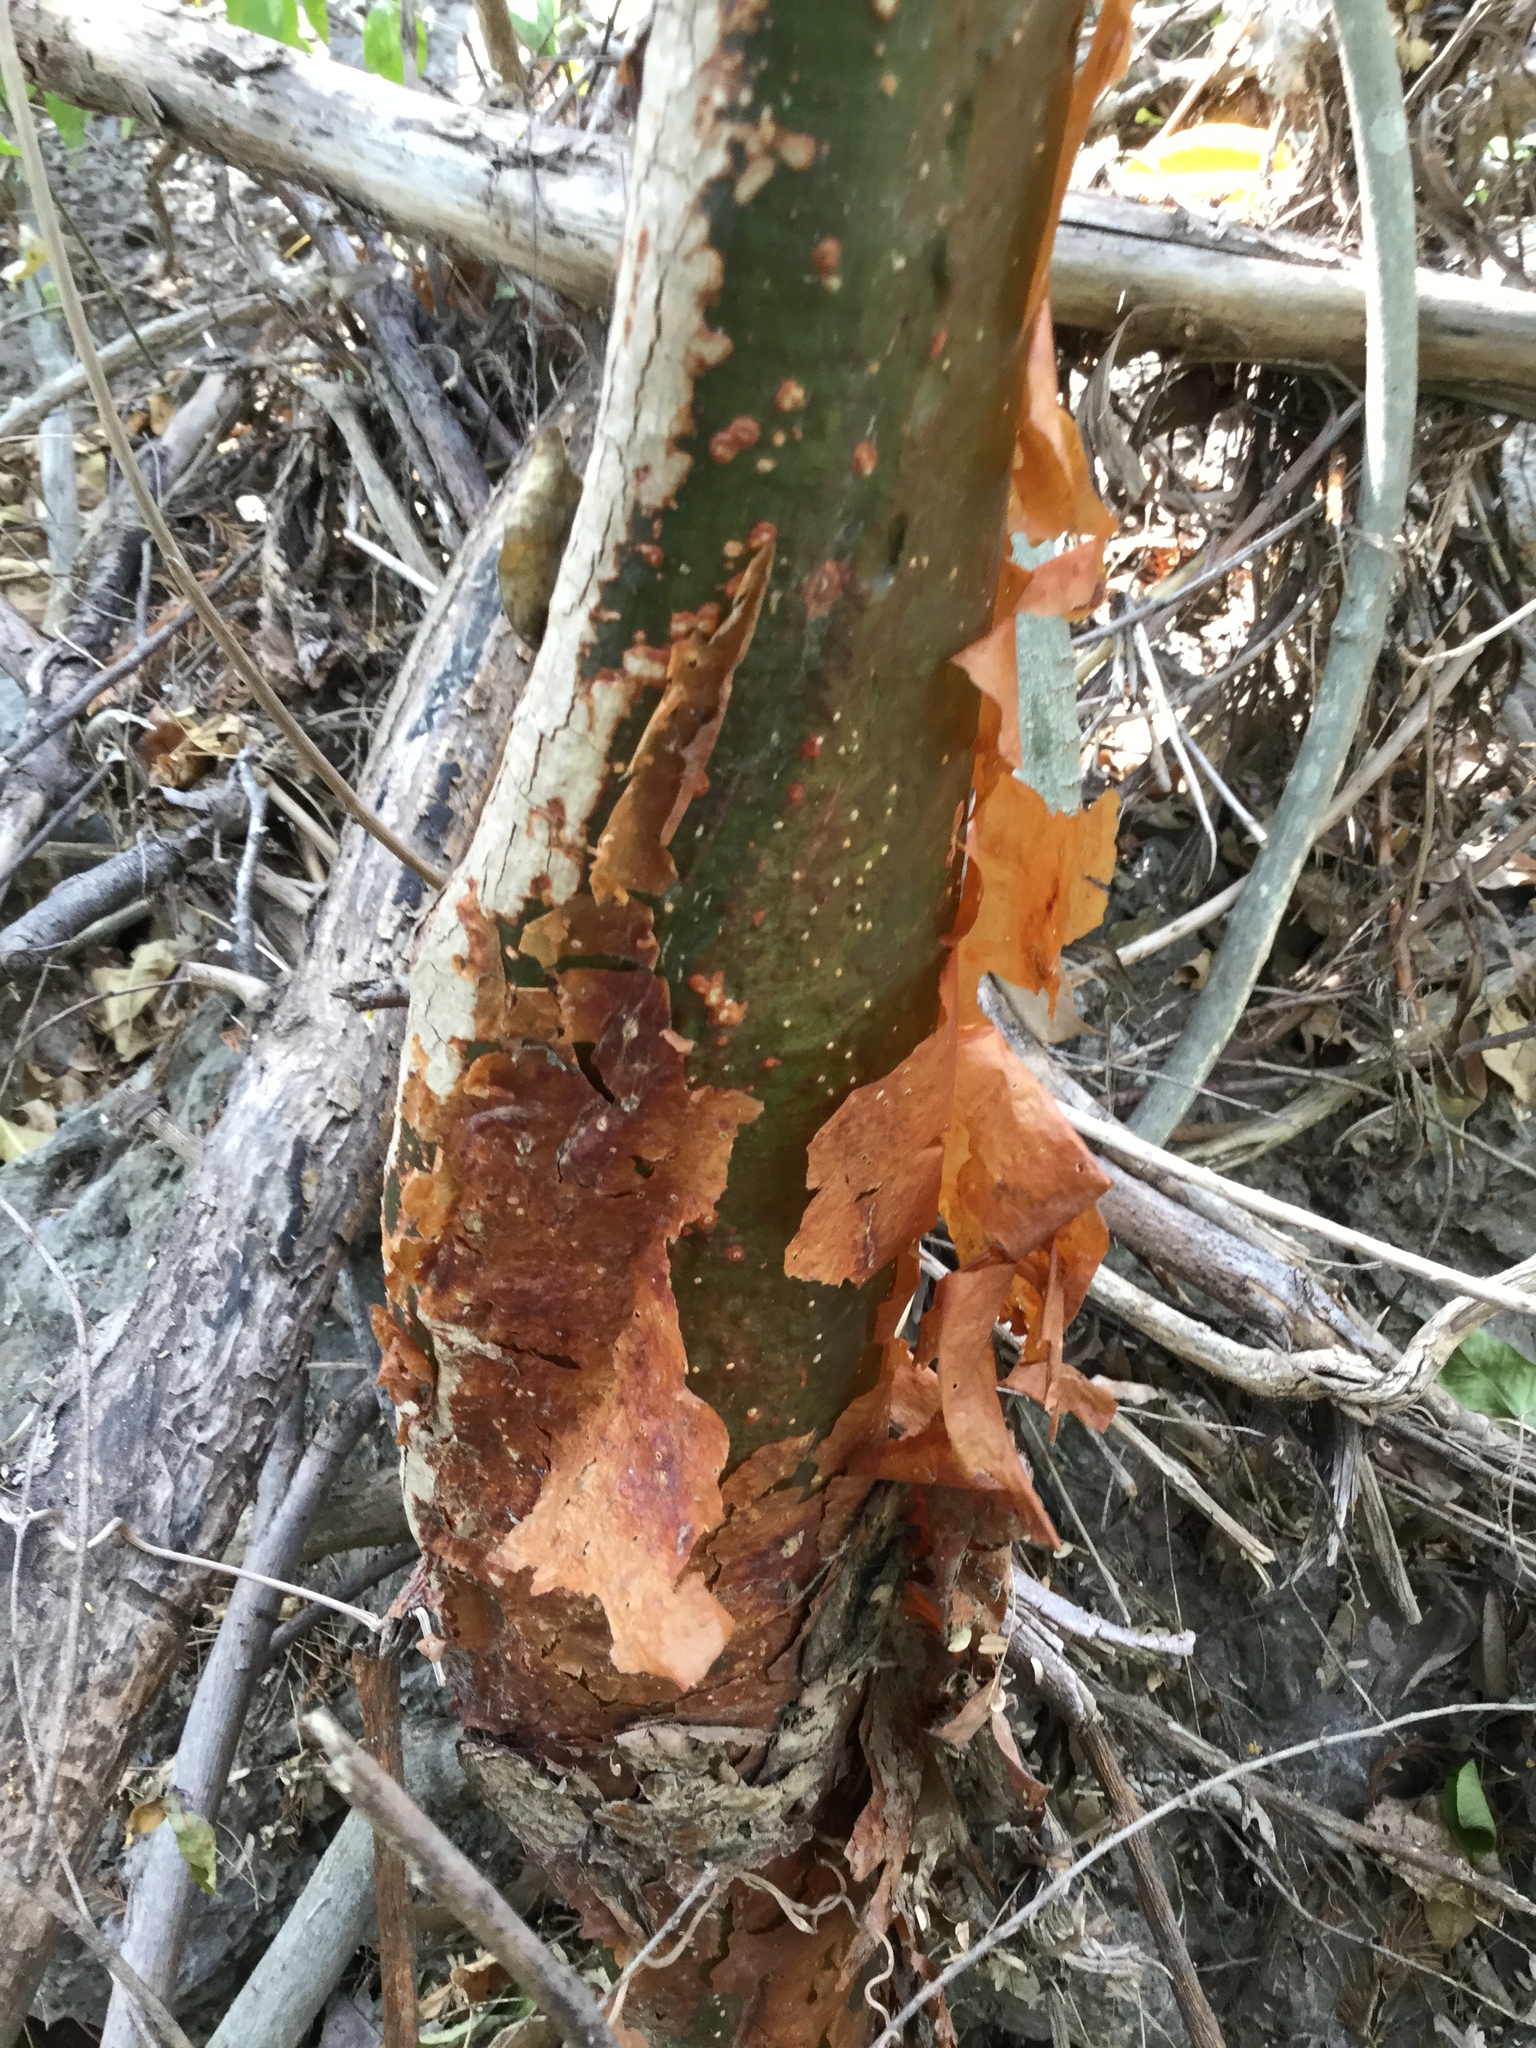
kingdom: Plantae
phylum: Tracheophyta
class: Magnoliopsida
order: Sapindales
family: Burseraceae
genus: Bursera
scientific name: Bursera simaruba
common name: Turpentine tree
